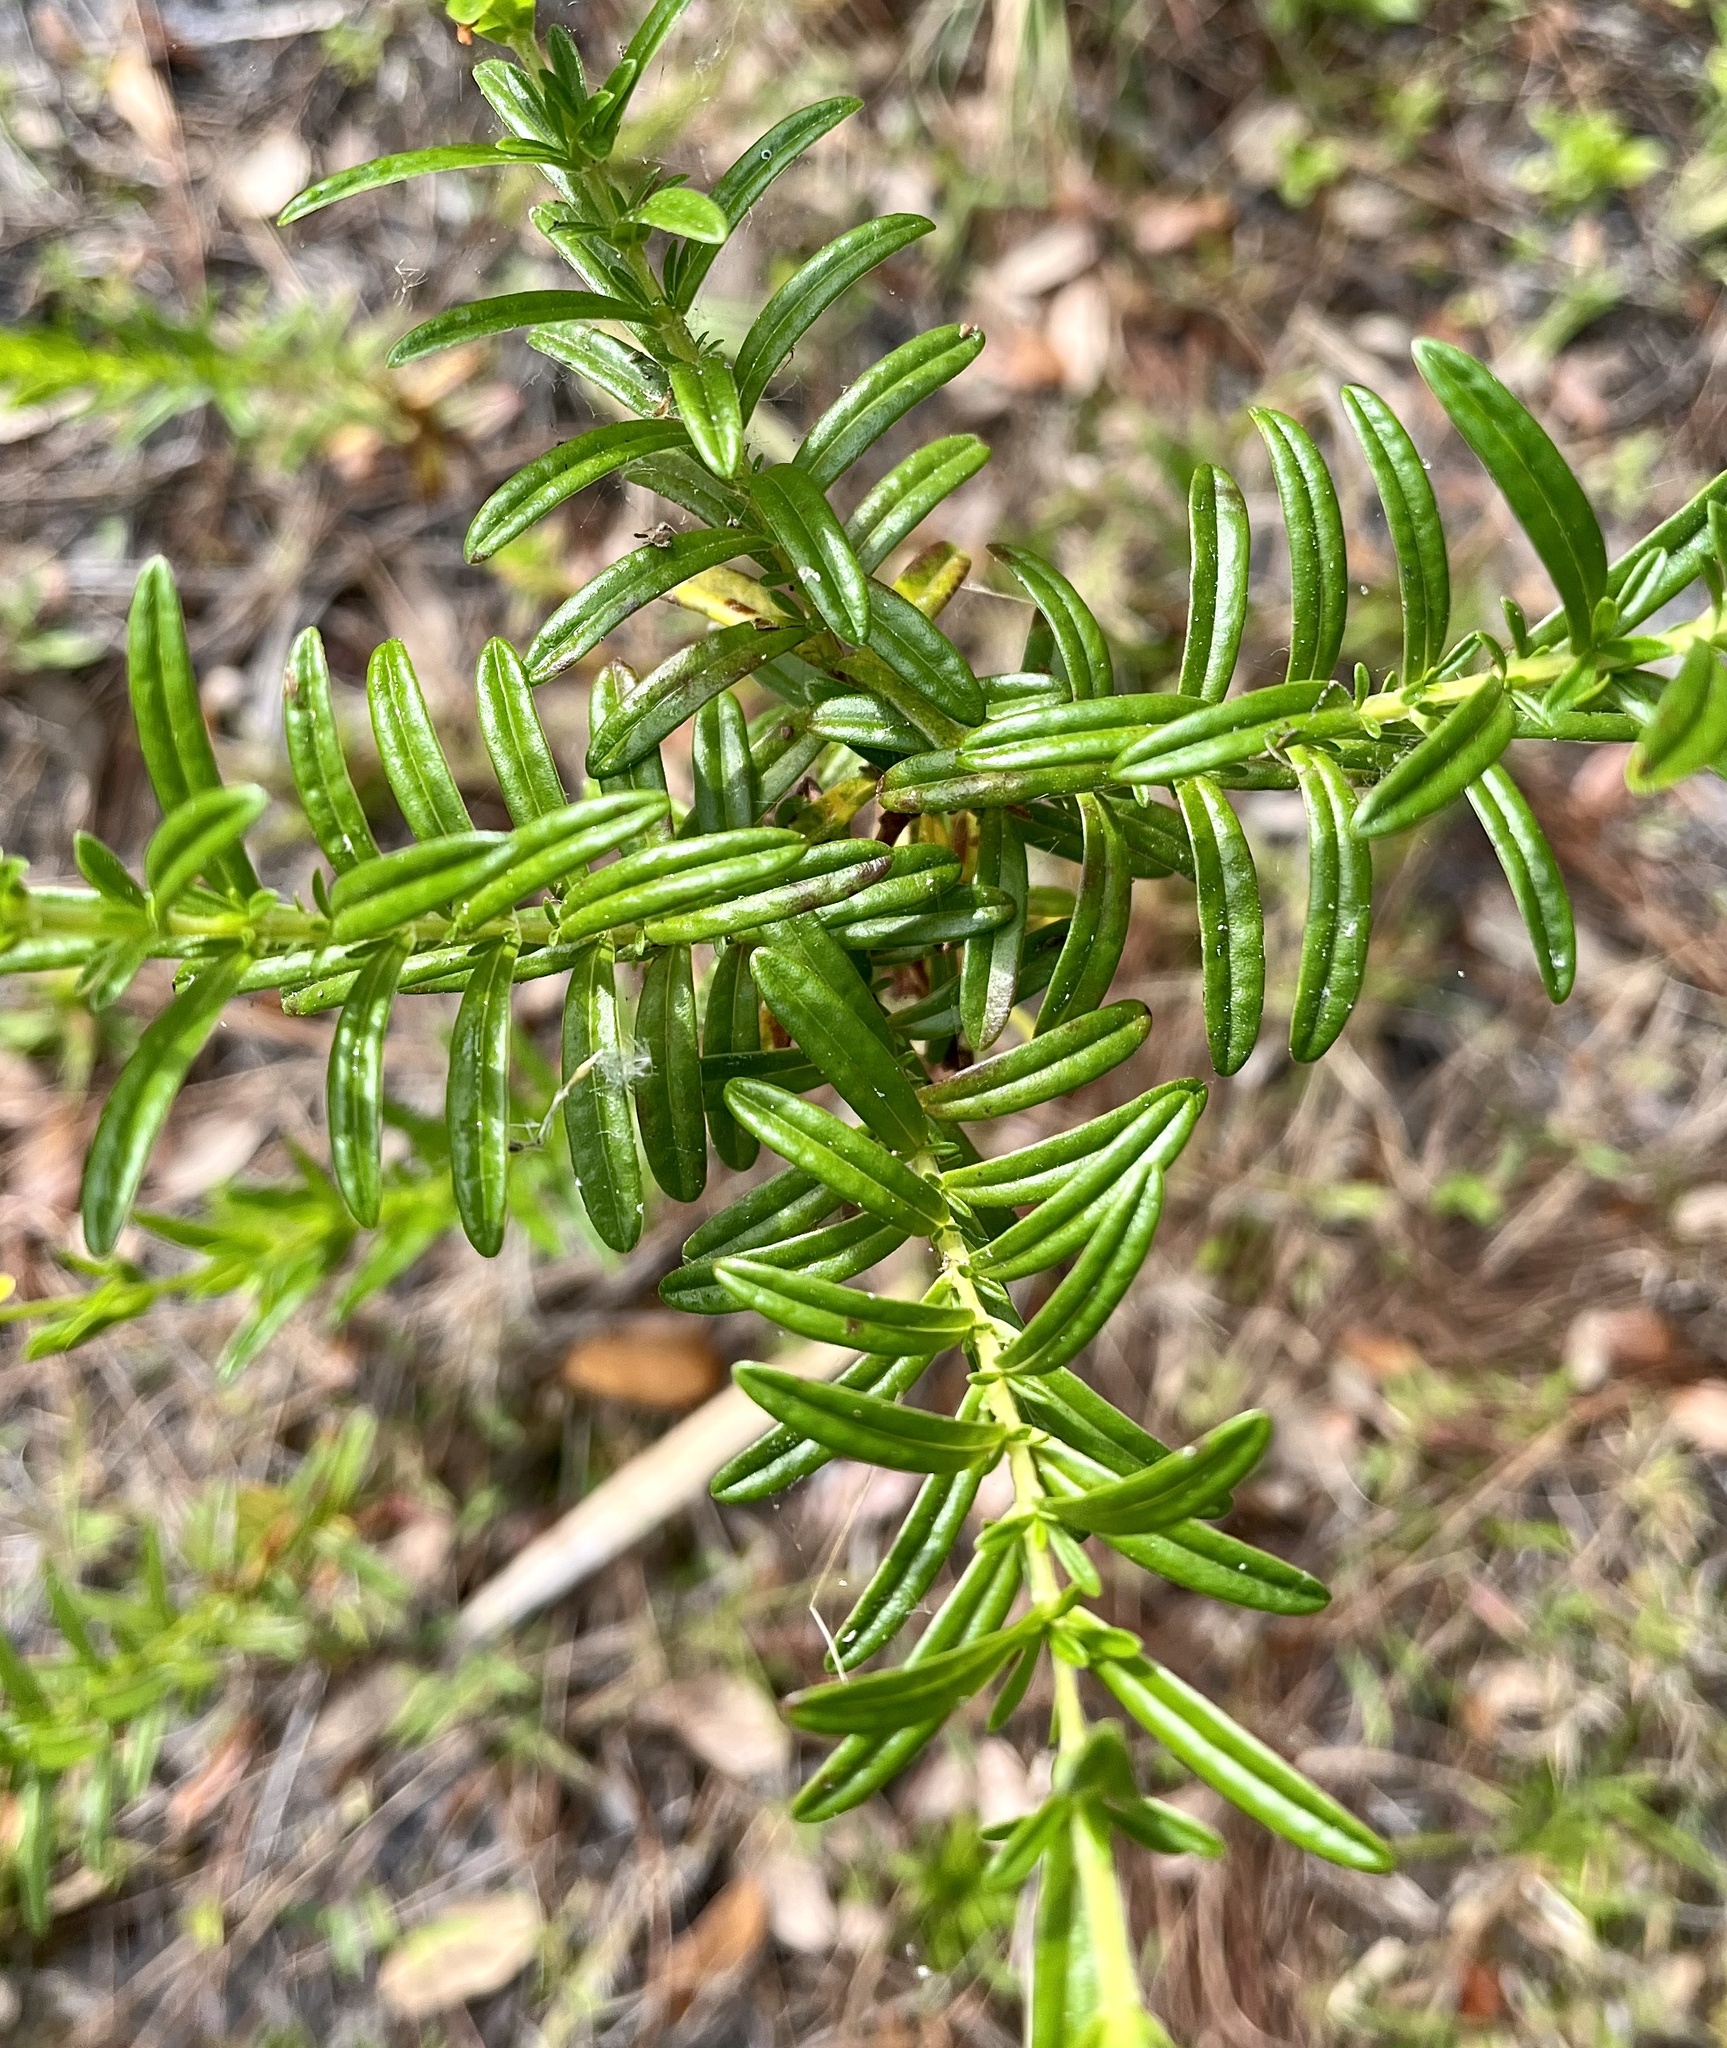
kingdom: Plantae
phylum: Tracheophyta
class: Magnoliopsida
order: Malpighiales
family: Hypericaceae
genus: Hypericum
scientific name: Hypericum cistifolium
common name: Round-pod st. john's-wort
